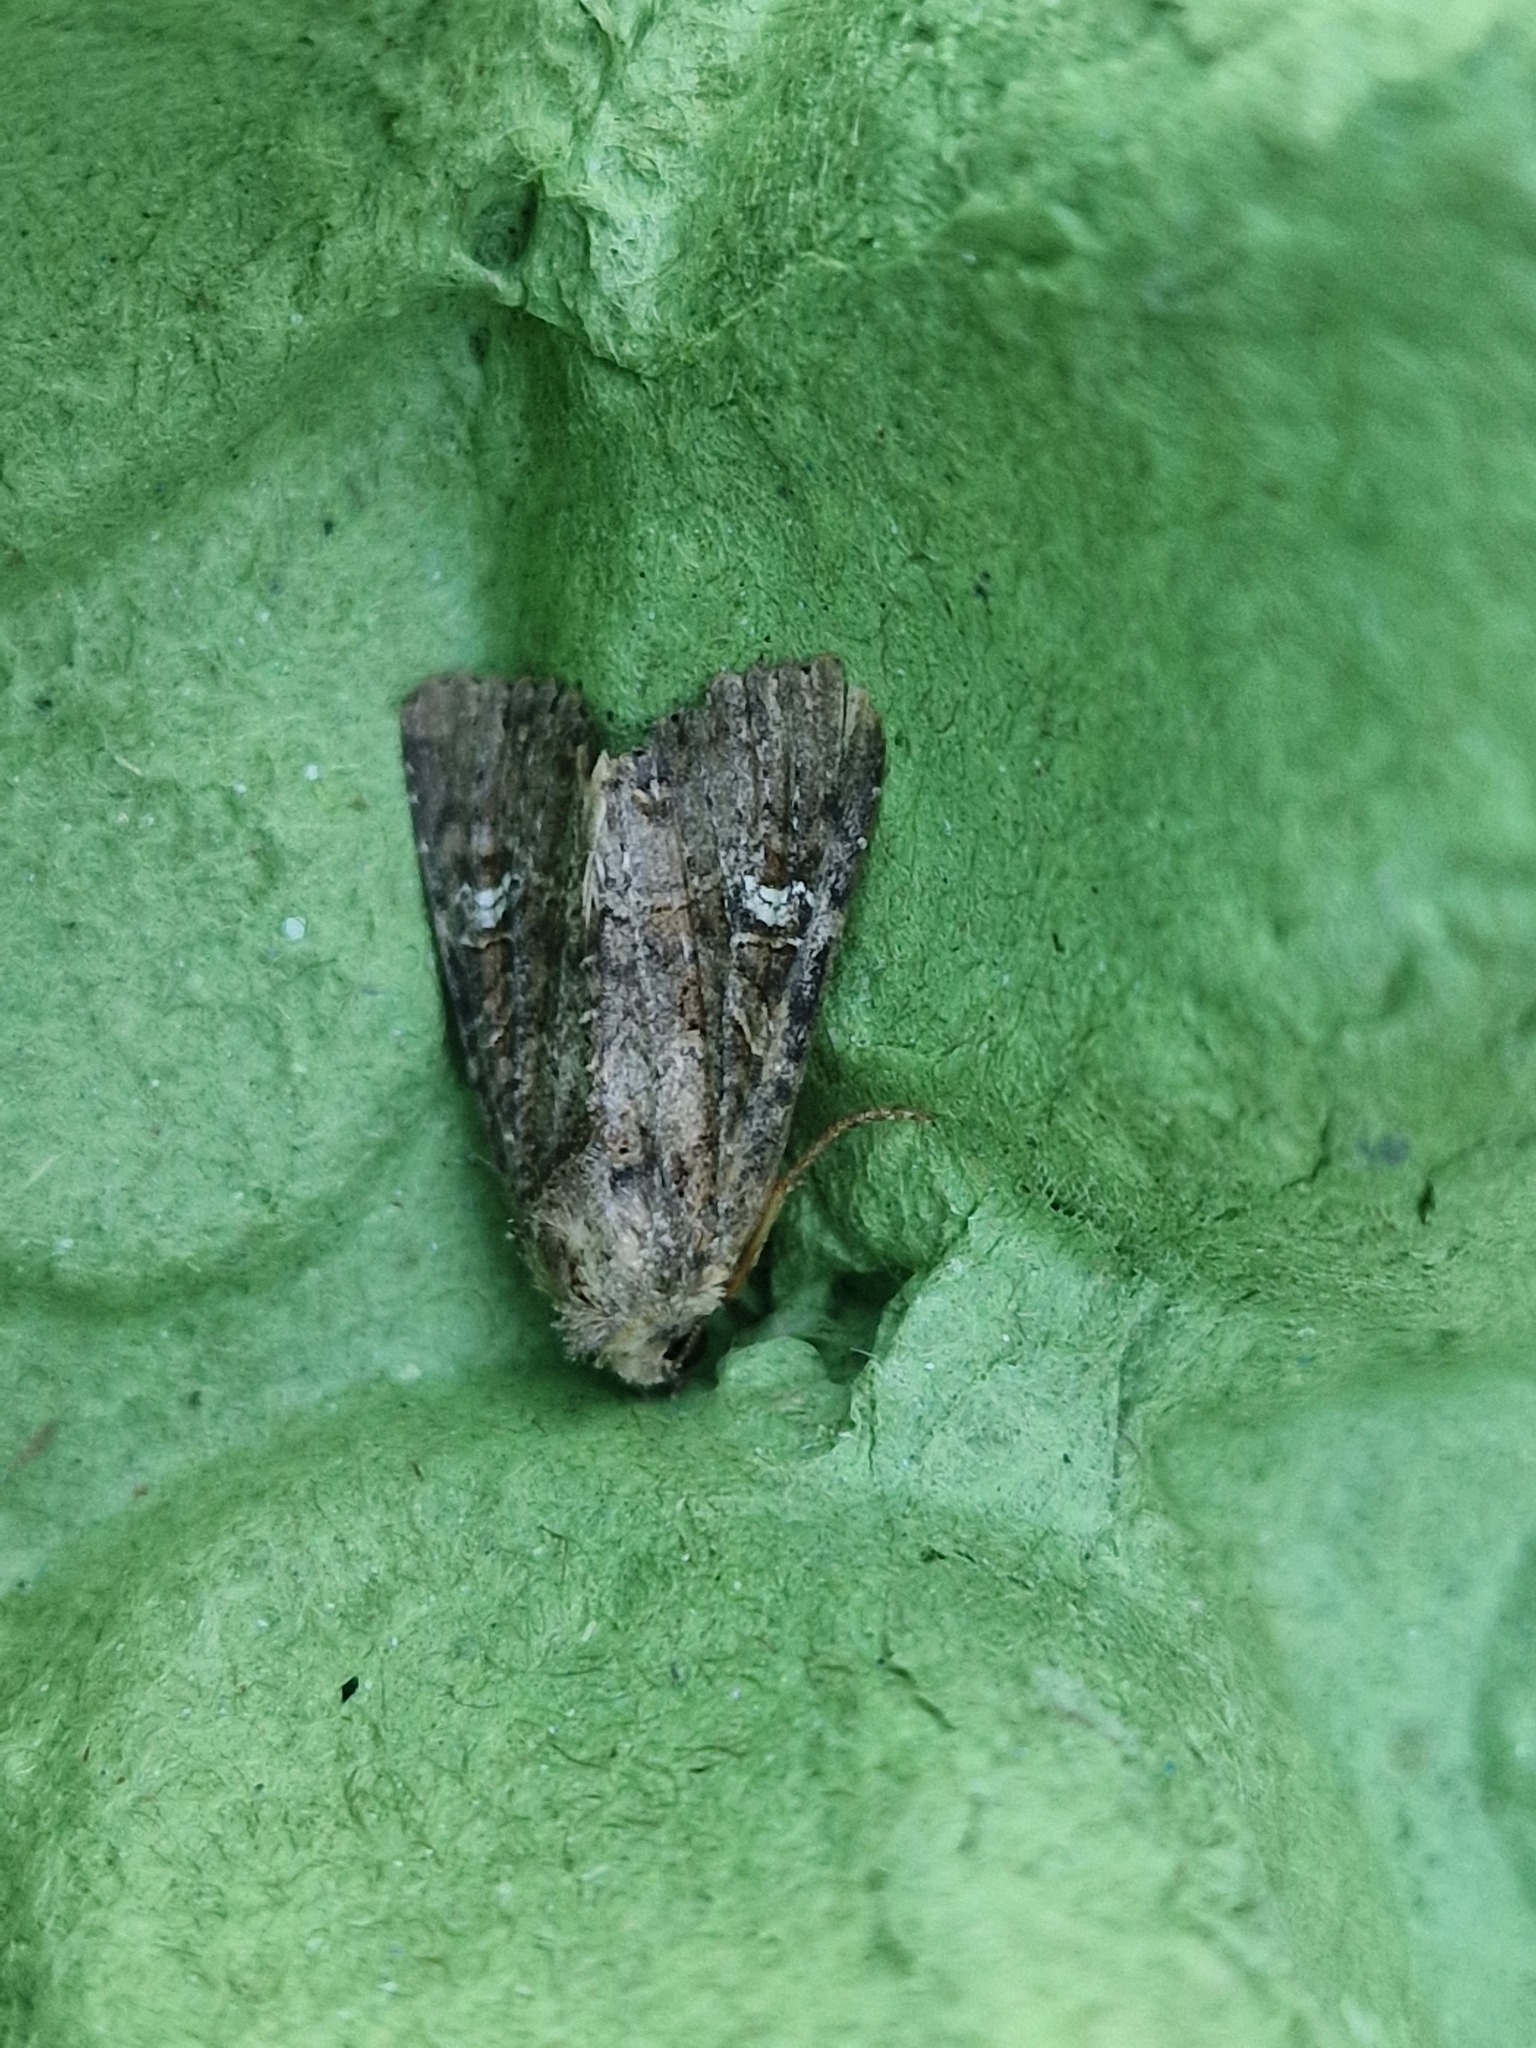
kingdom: Animalia
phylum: Arthropoda
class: Insecta
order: Lepidoptera
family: Noctuidae
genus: Mesapamea
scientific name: Mesapamea
